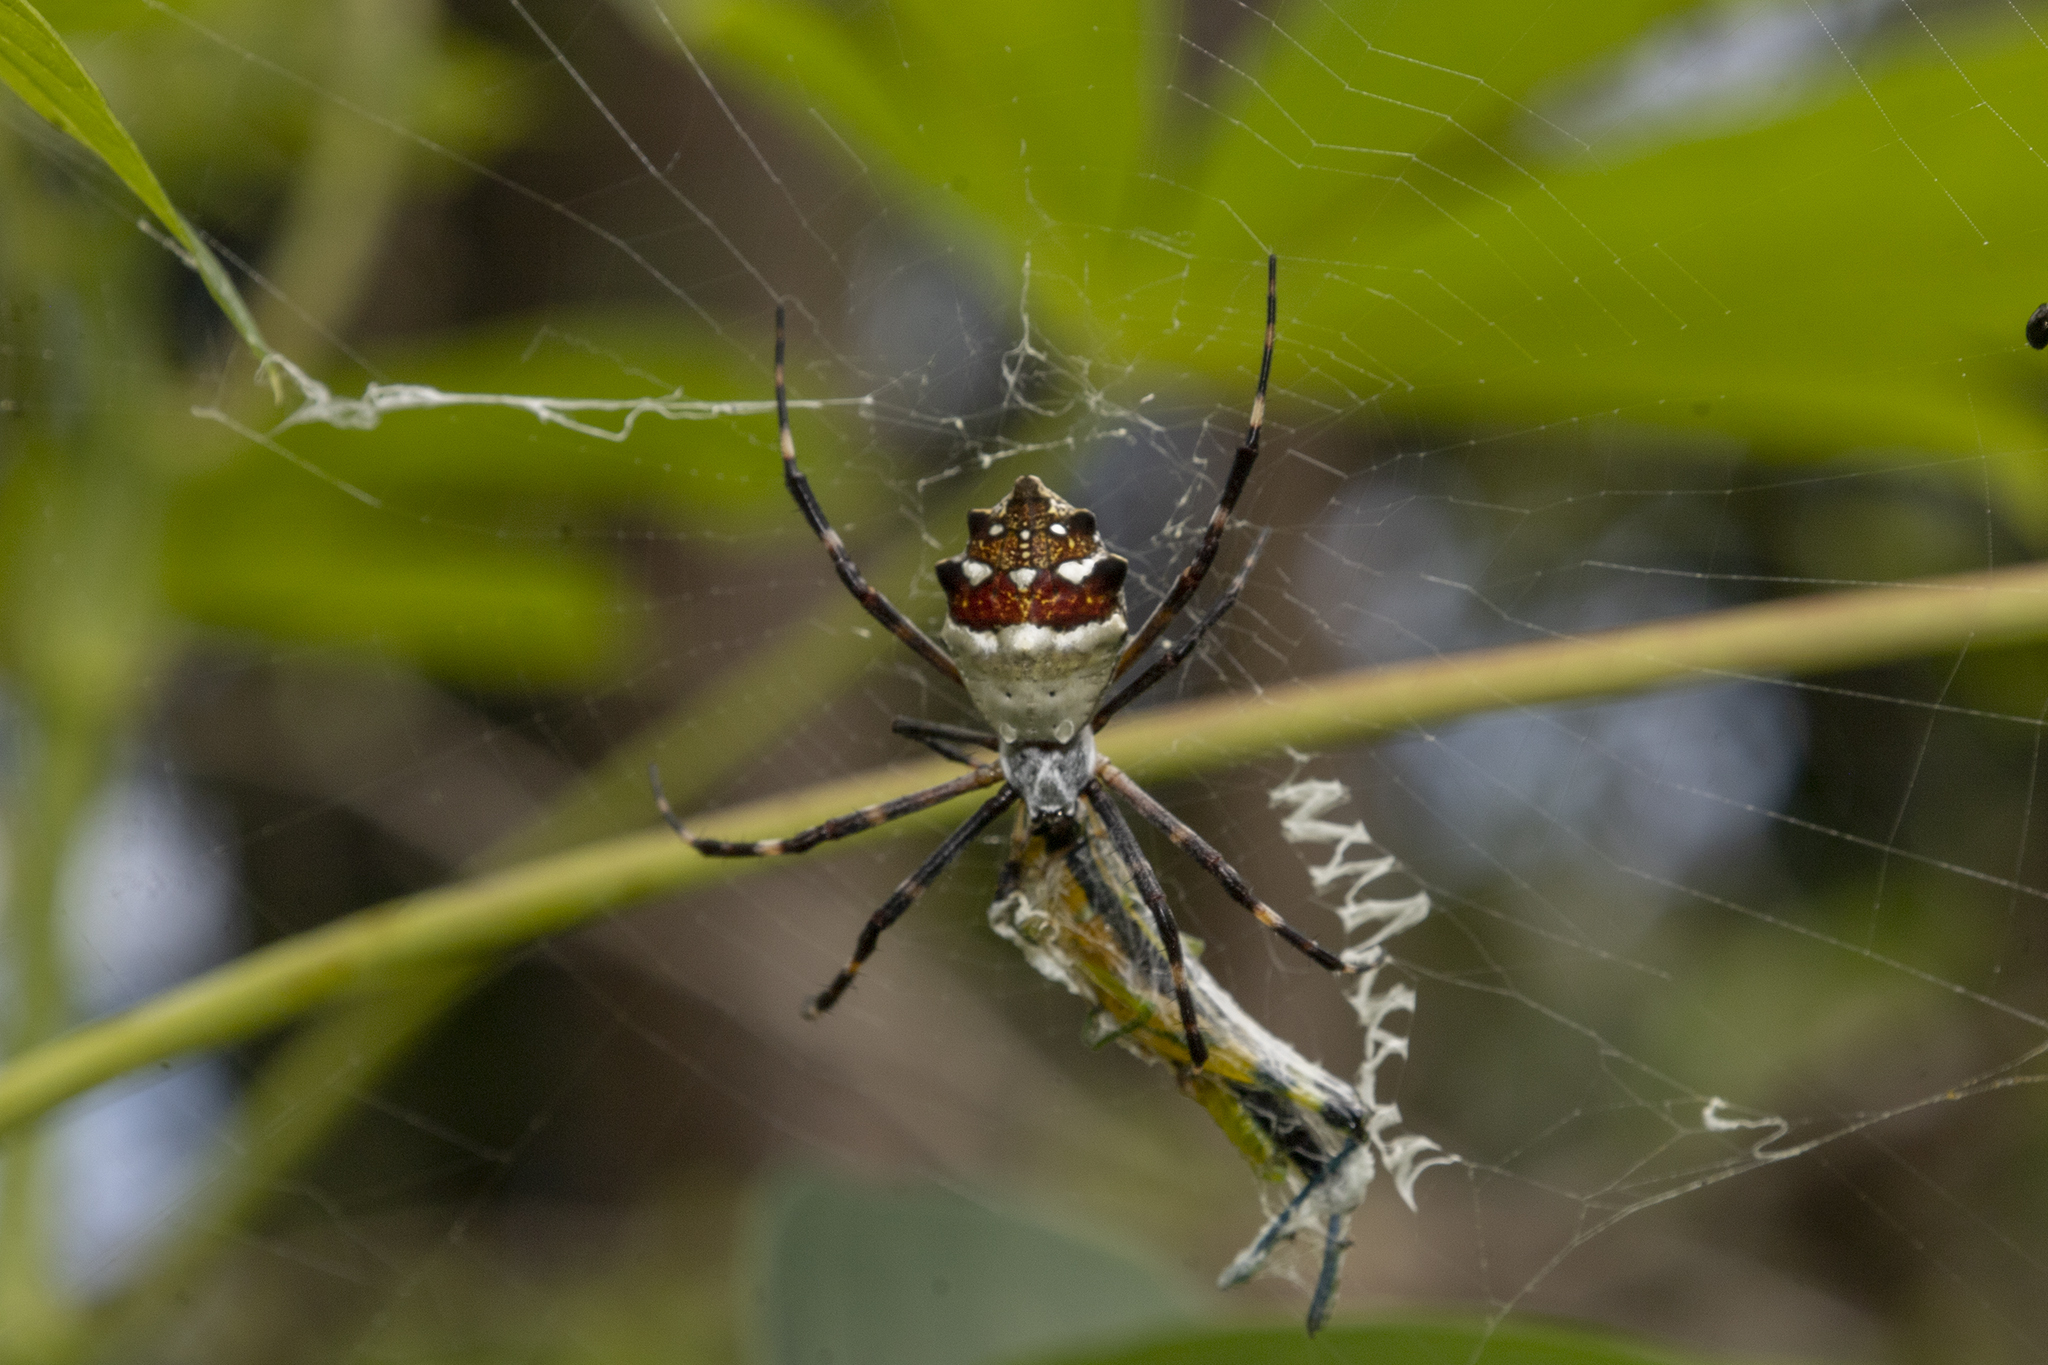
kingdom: Animalia
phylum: Arthropoda
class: Arachnida
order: Araneae
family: Araneidae
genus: Argiope
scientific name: Argiope argentata
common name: Orb weavers
